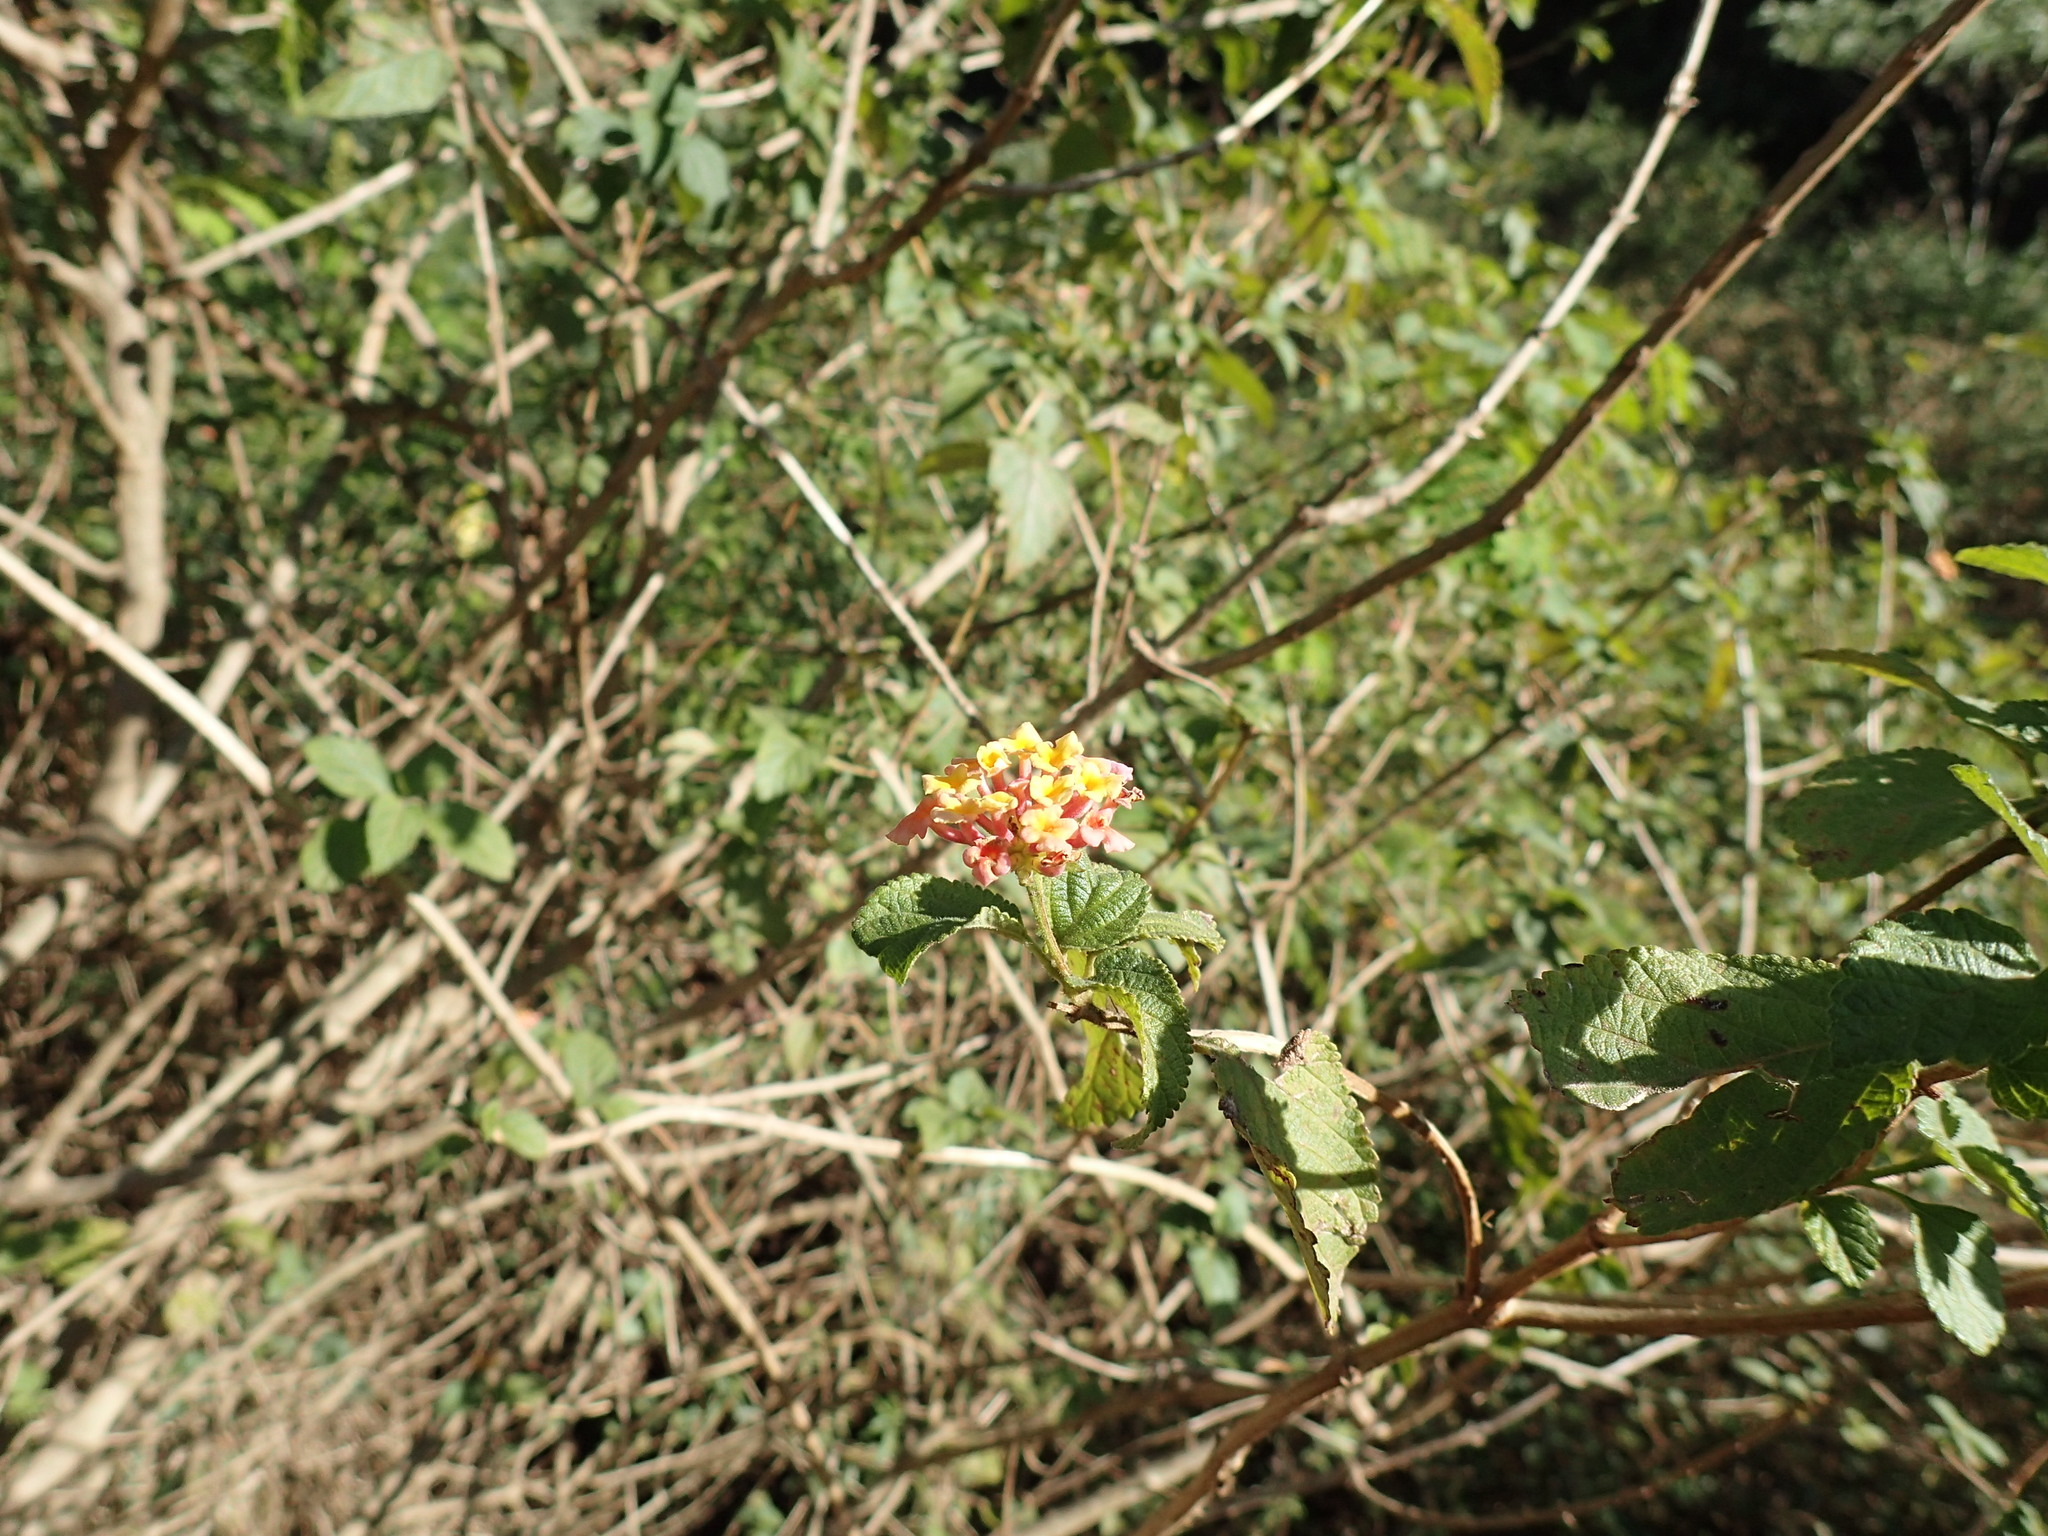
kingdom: Plantae
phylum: Tracheophyta
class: Magnoliopsida
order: Lamiales
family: Verbenaceae
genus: Lantana
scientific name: Lantana camara
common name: Lantana
